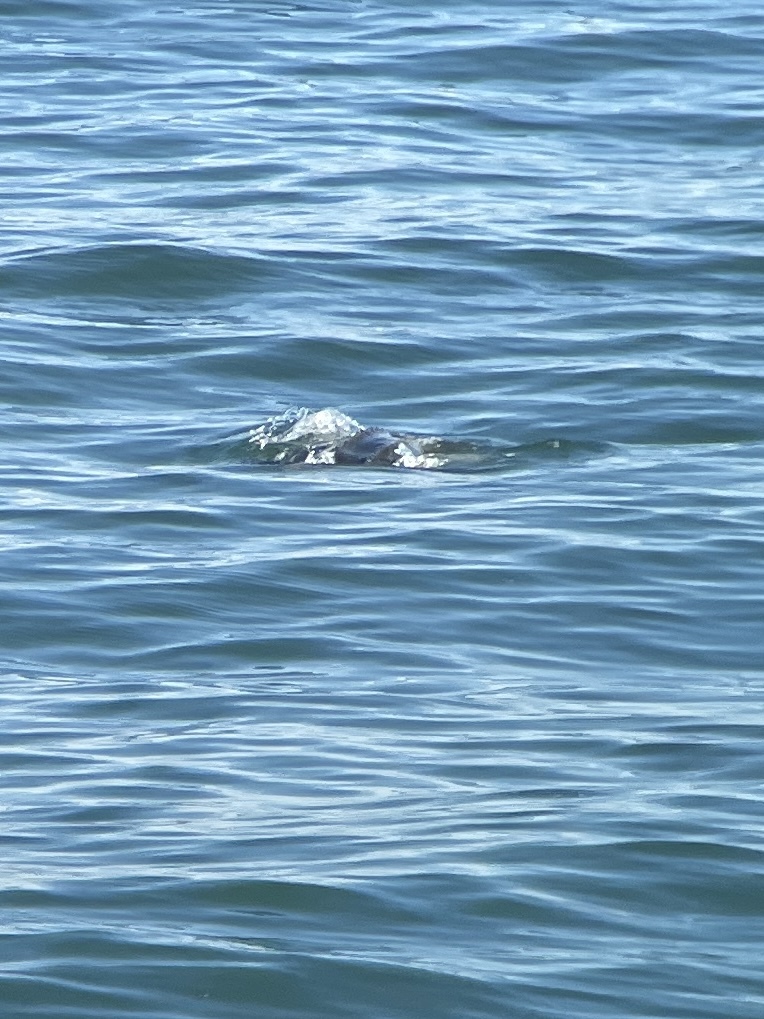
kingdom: Animalia
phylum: Chordata
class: Testudines
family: Dermochelyidae
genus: Dermochelys
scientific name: Dermochelys coriacea
